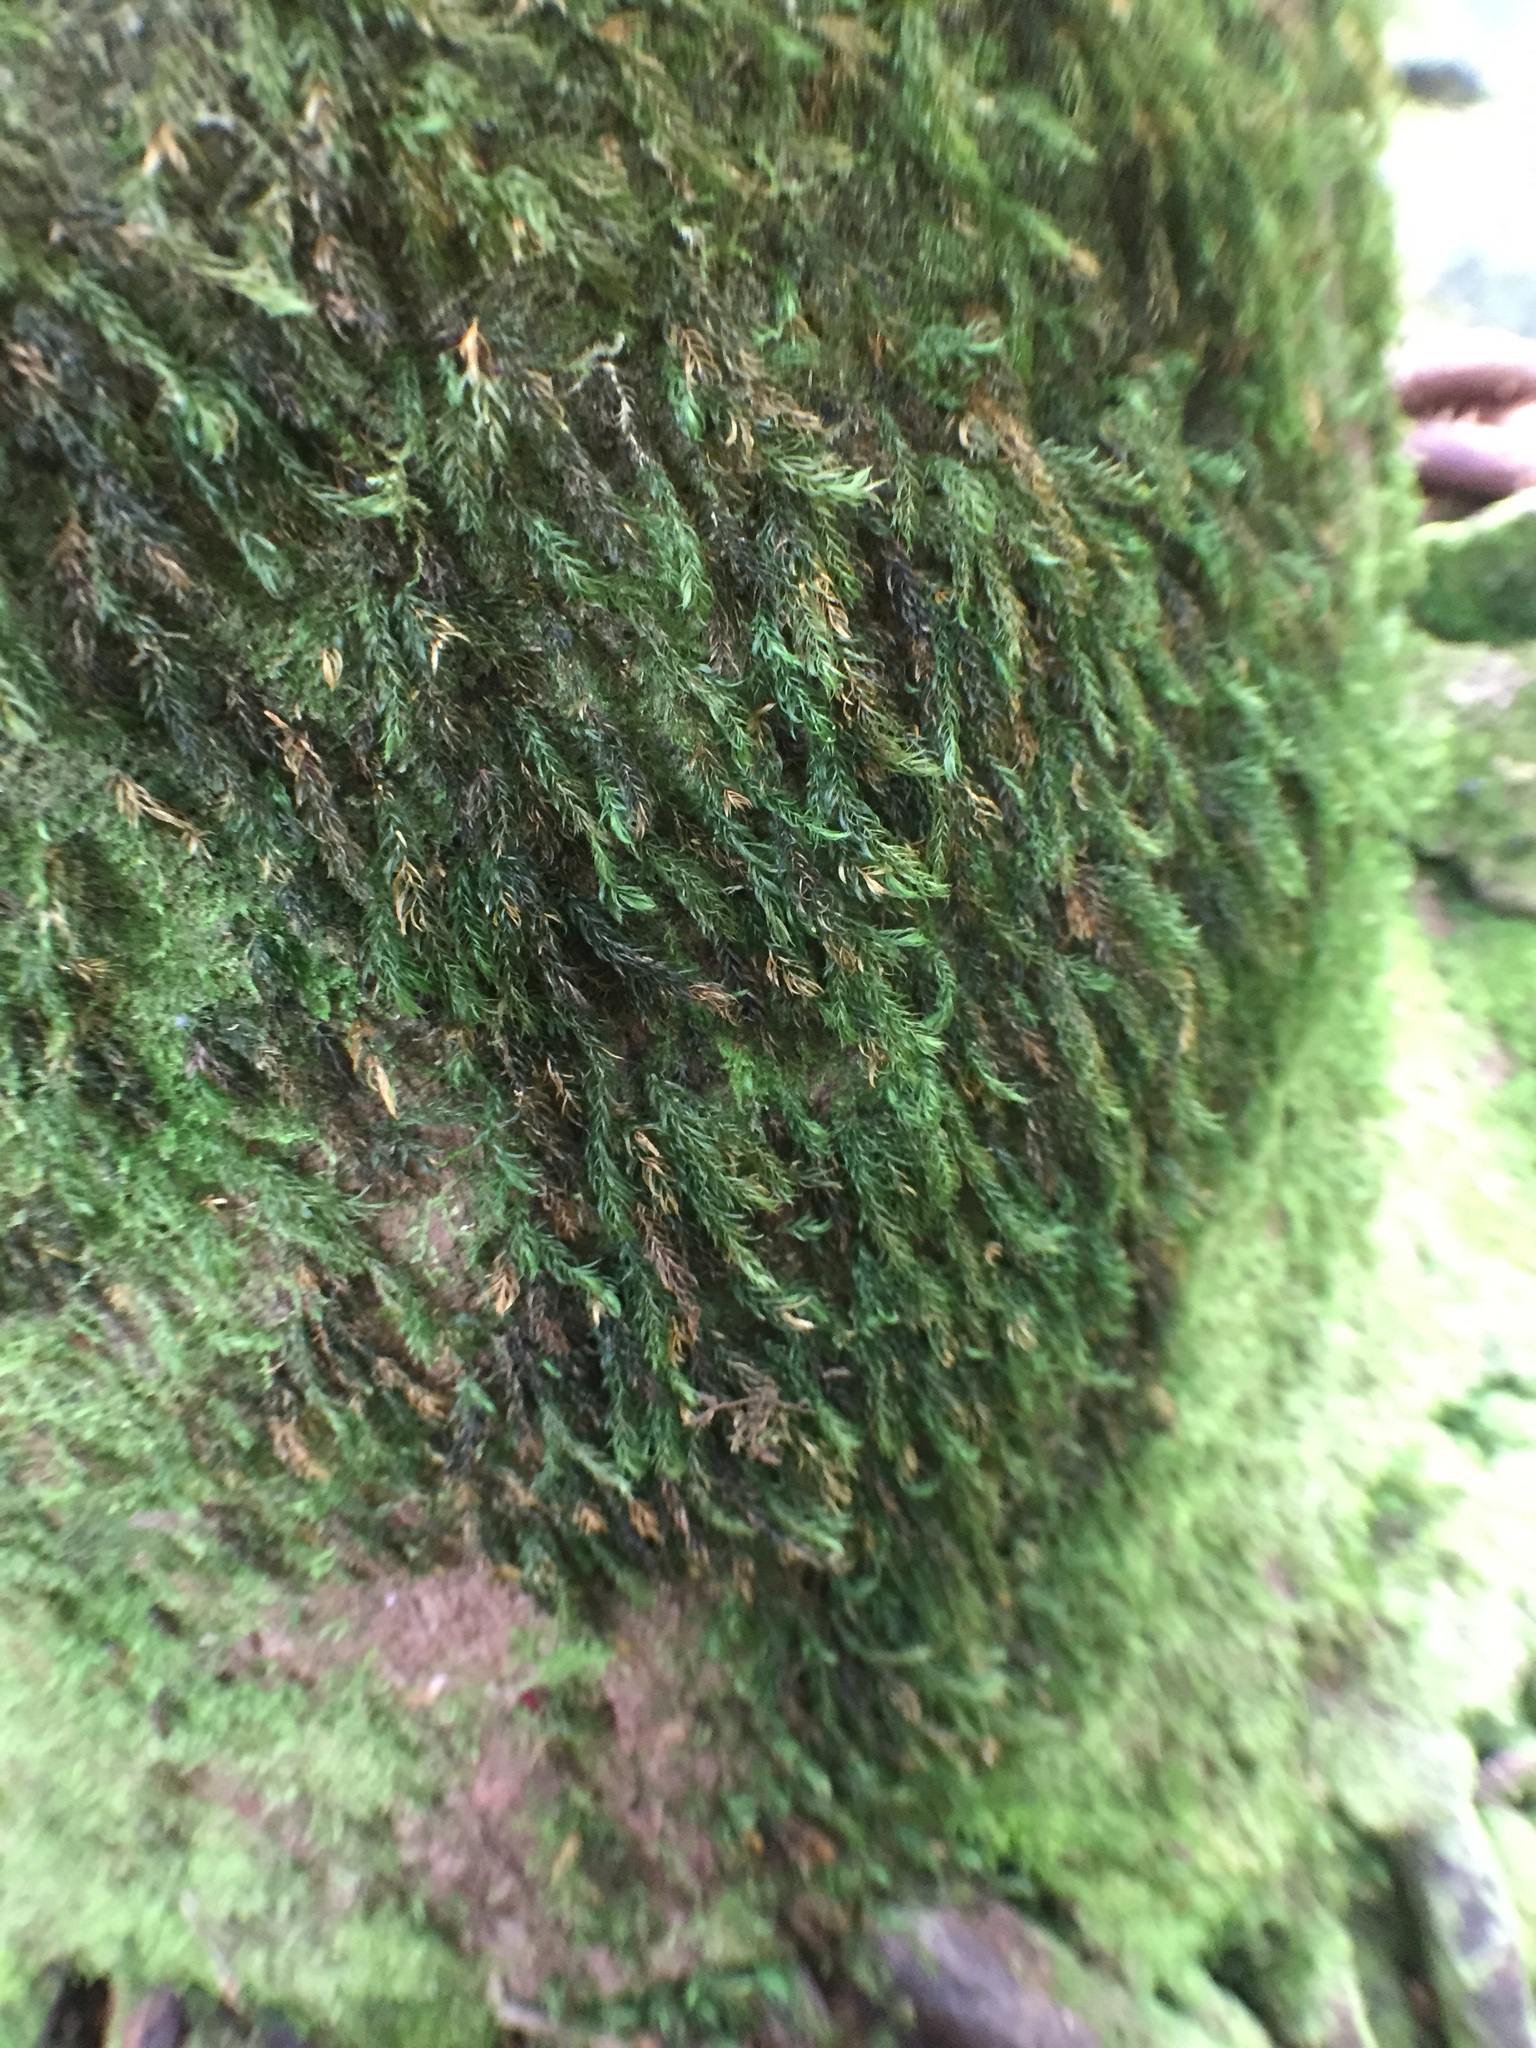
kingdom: Plantae
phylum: Bryophyta
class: Bryopsida
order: Rhizogoniales
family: Calomniaceae
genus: Pyrrhobryum
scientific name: Pyrrhobryum spiniforme
